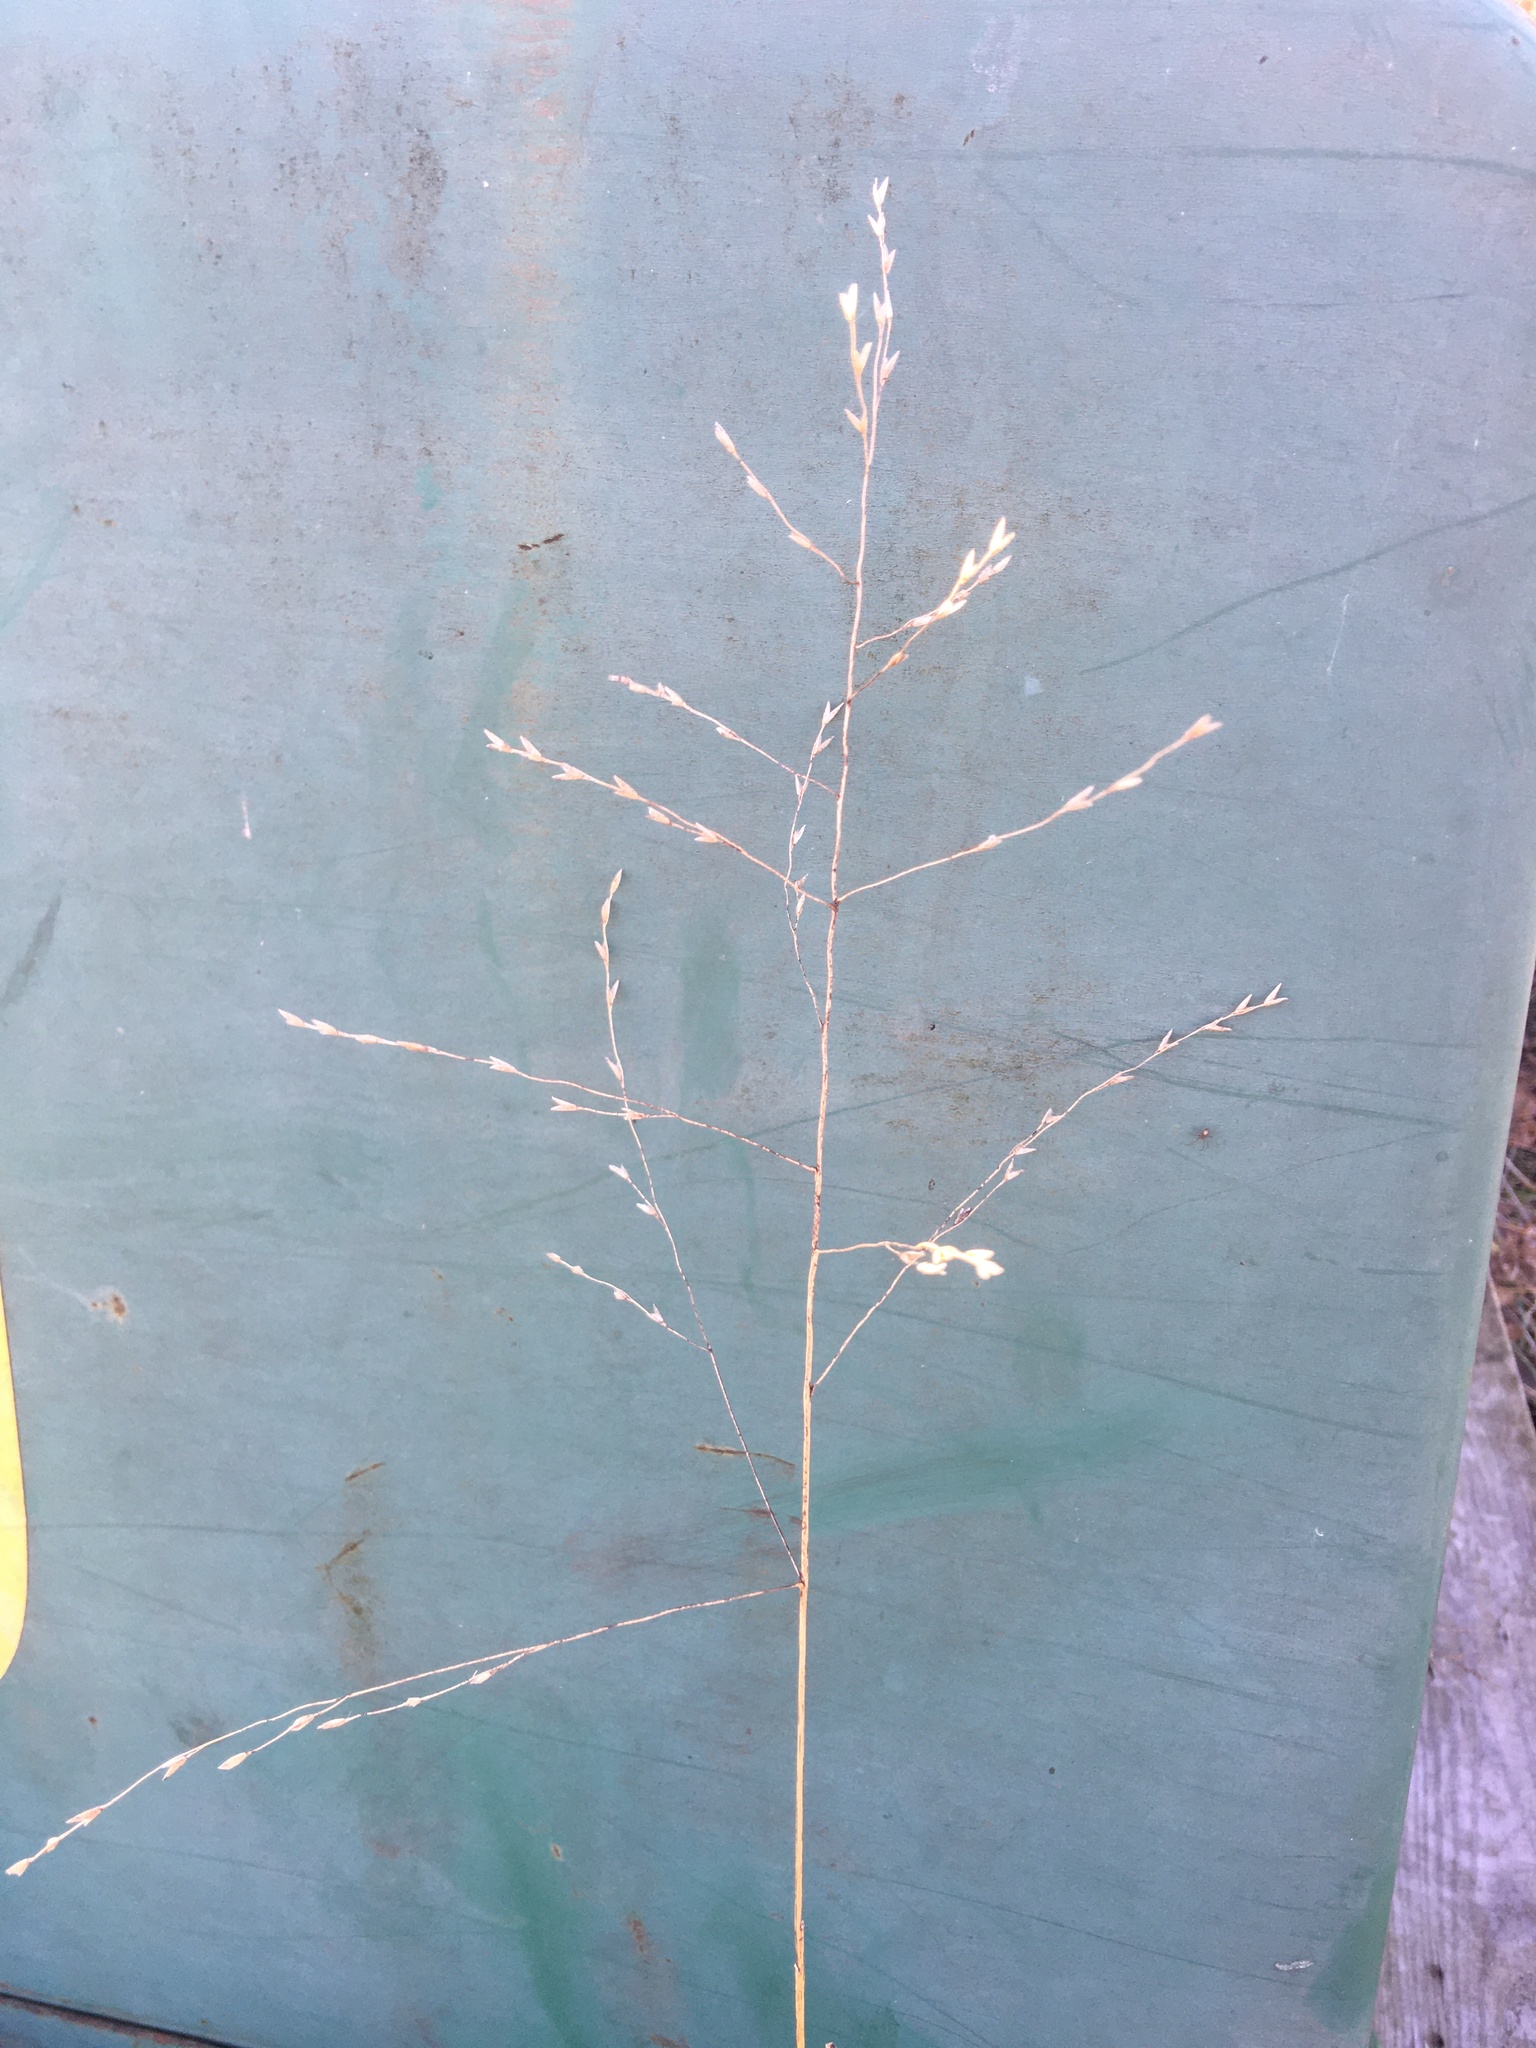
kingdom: Plantae
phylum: Tracheophyta
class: Liliopsida
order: Poales
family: Poaceae
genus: Tridens
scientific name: Tridens flavus
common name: Purpletop
